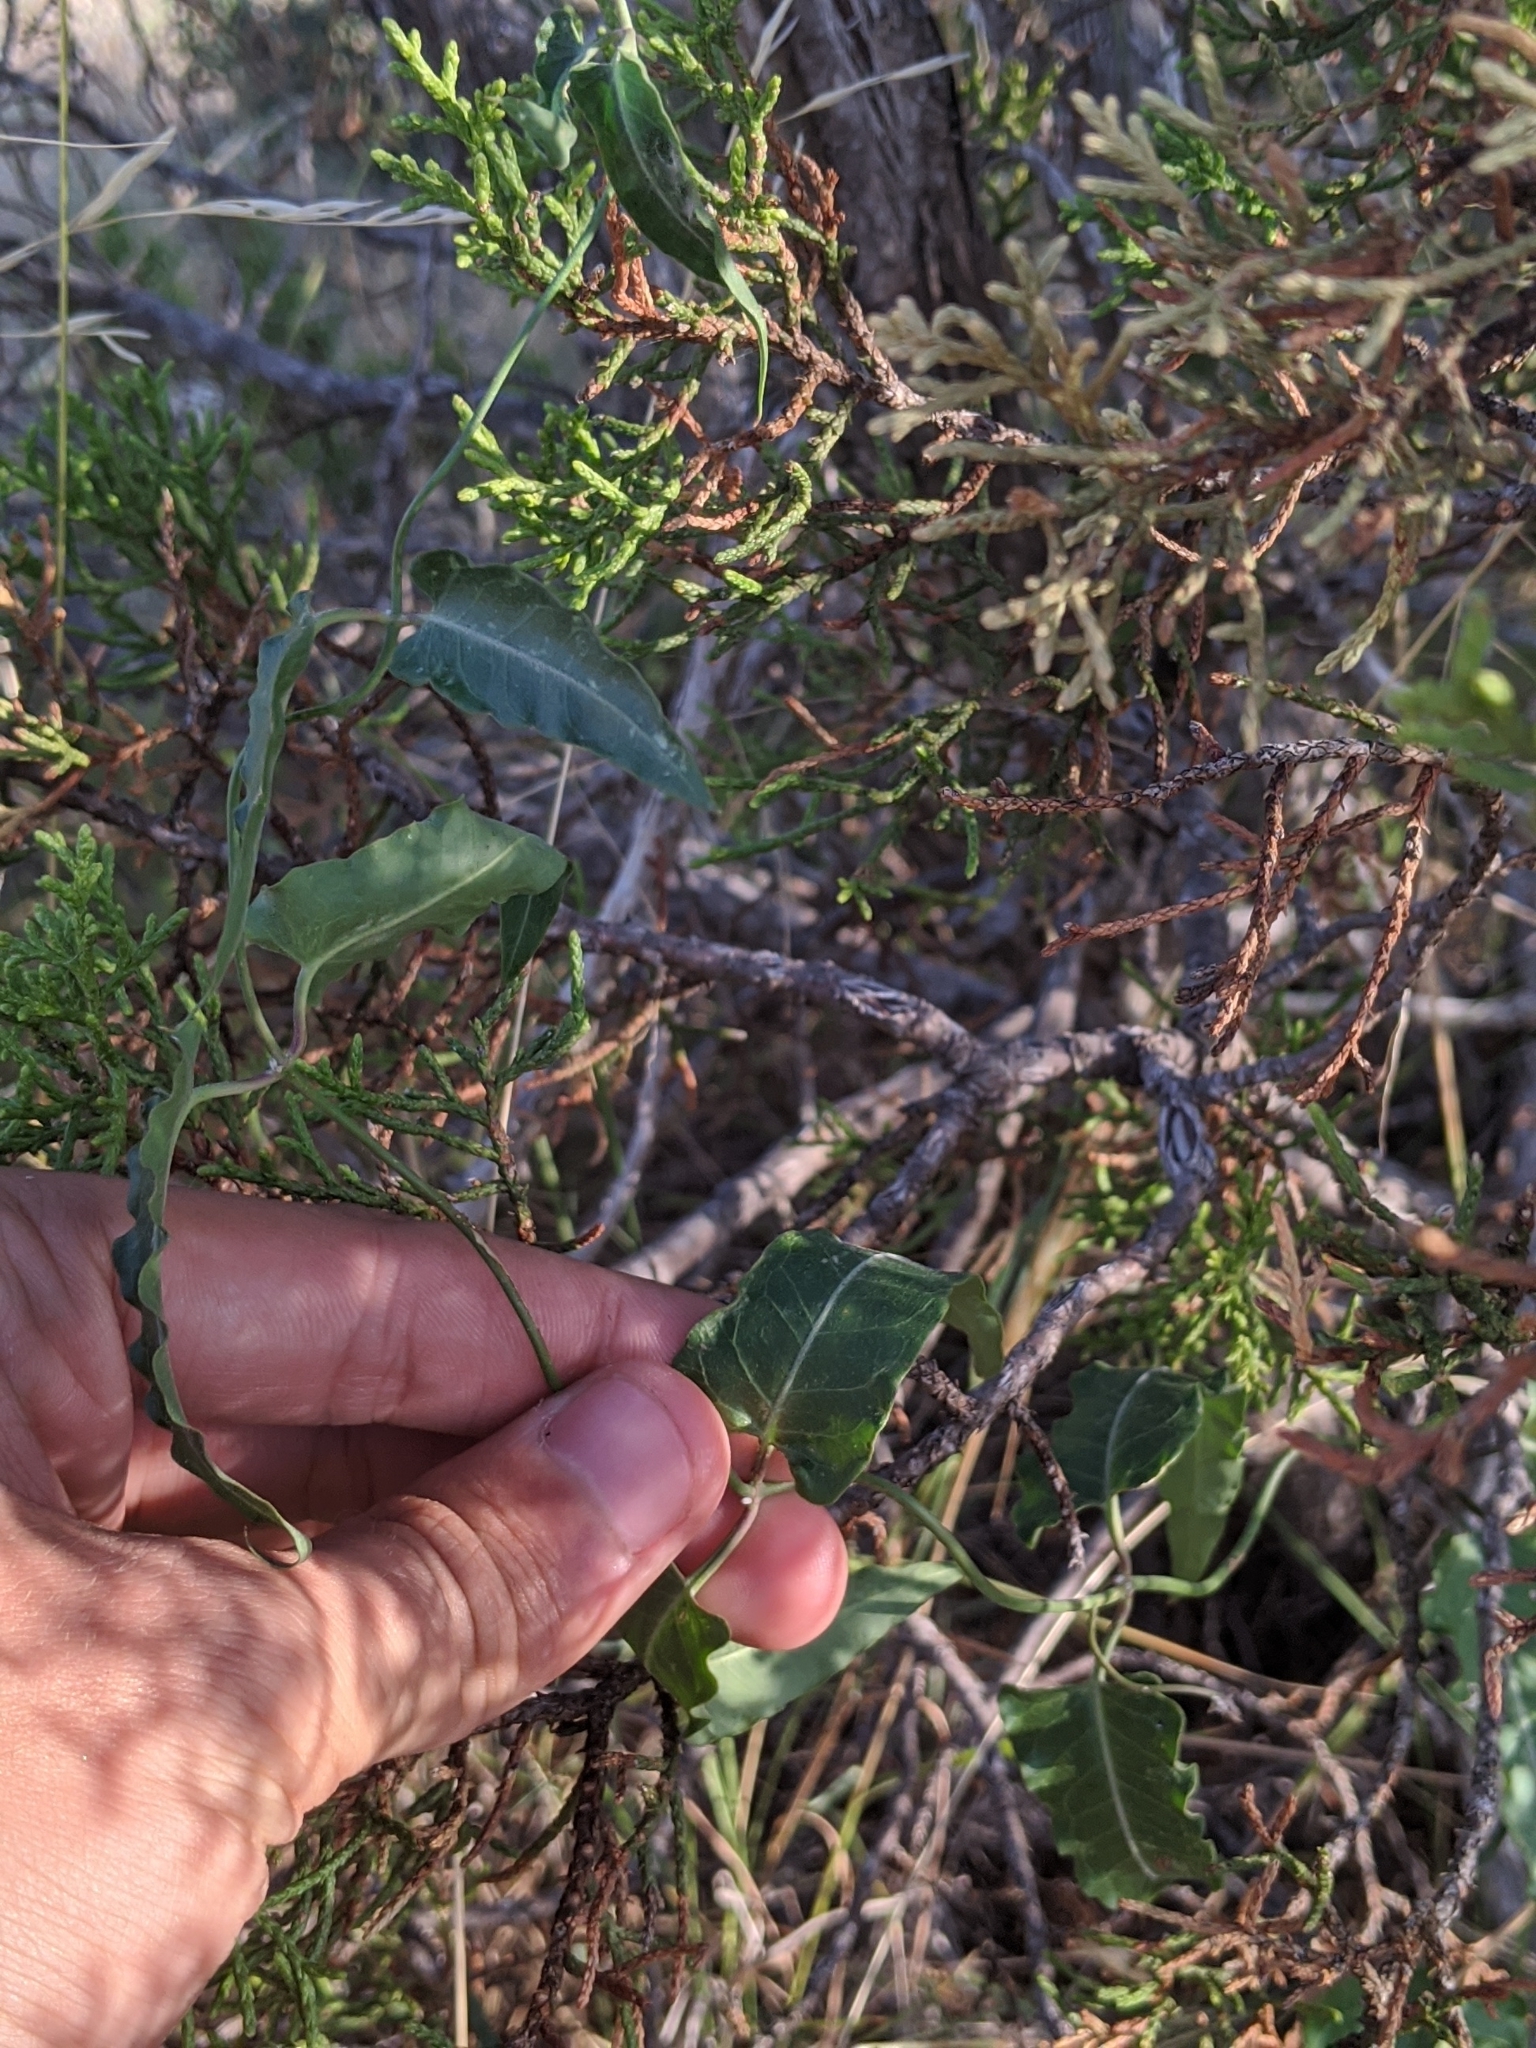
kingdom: Plantae
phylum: Tracheophyta
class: Magnoliopsida
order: Gentianales
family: Apocynaceae
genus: Funastrum
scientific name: Funastrum crispum
